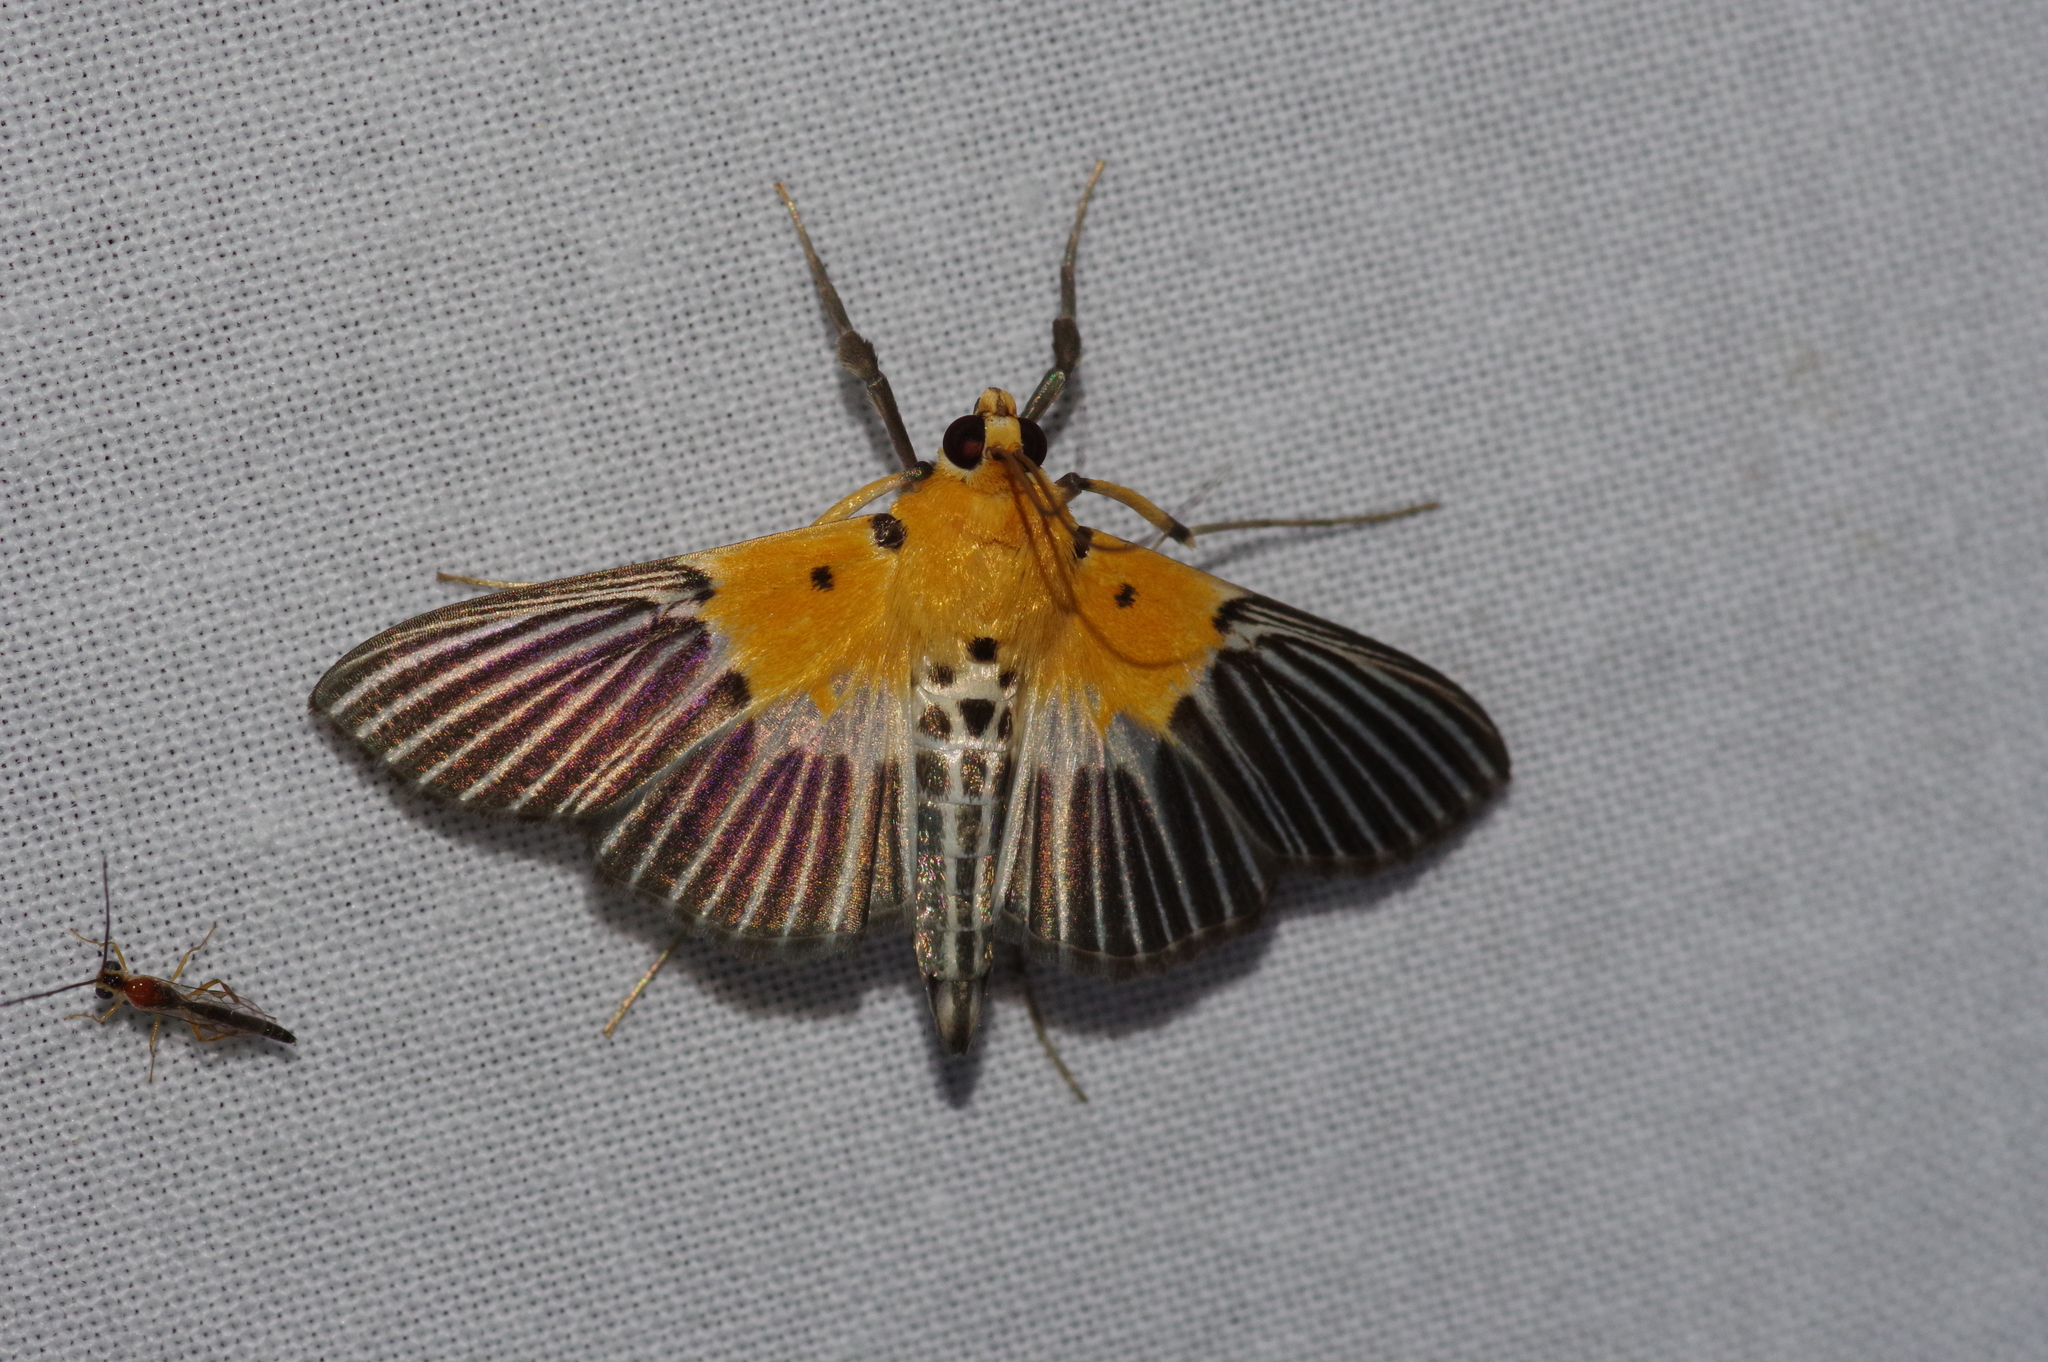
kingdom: Animalia
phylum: Arthropoda
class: Insecta
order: Lepidoptera
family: Crambidae
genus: Nevrina
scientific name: Nevrina procopia
